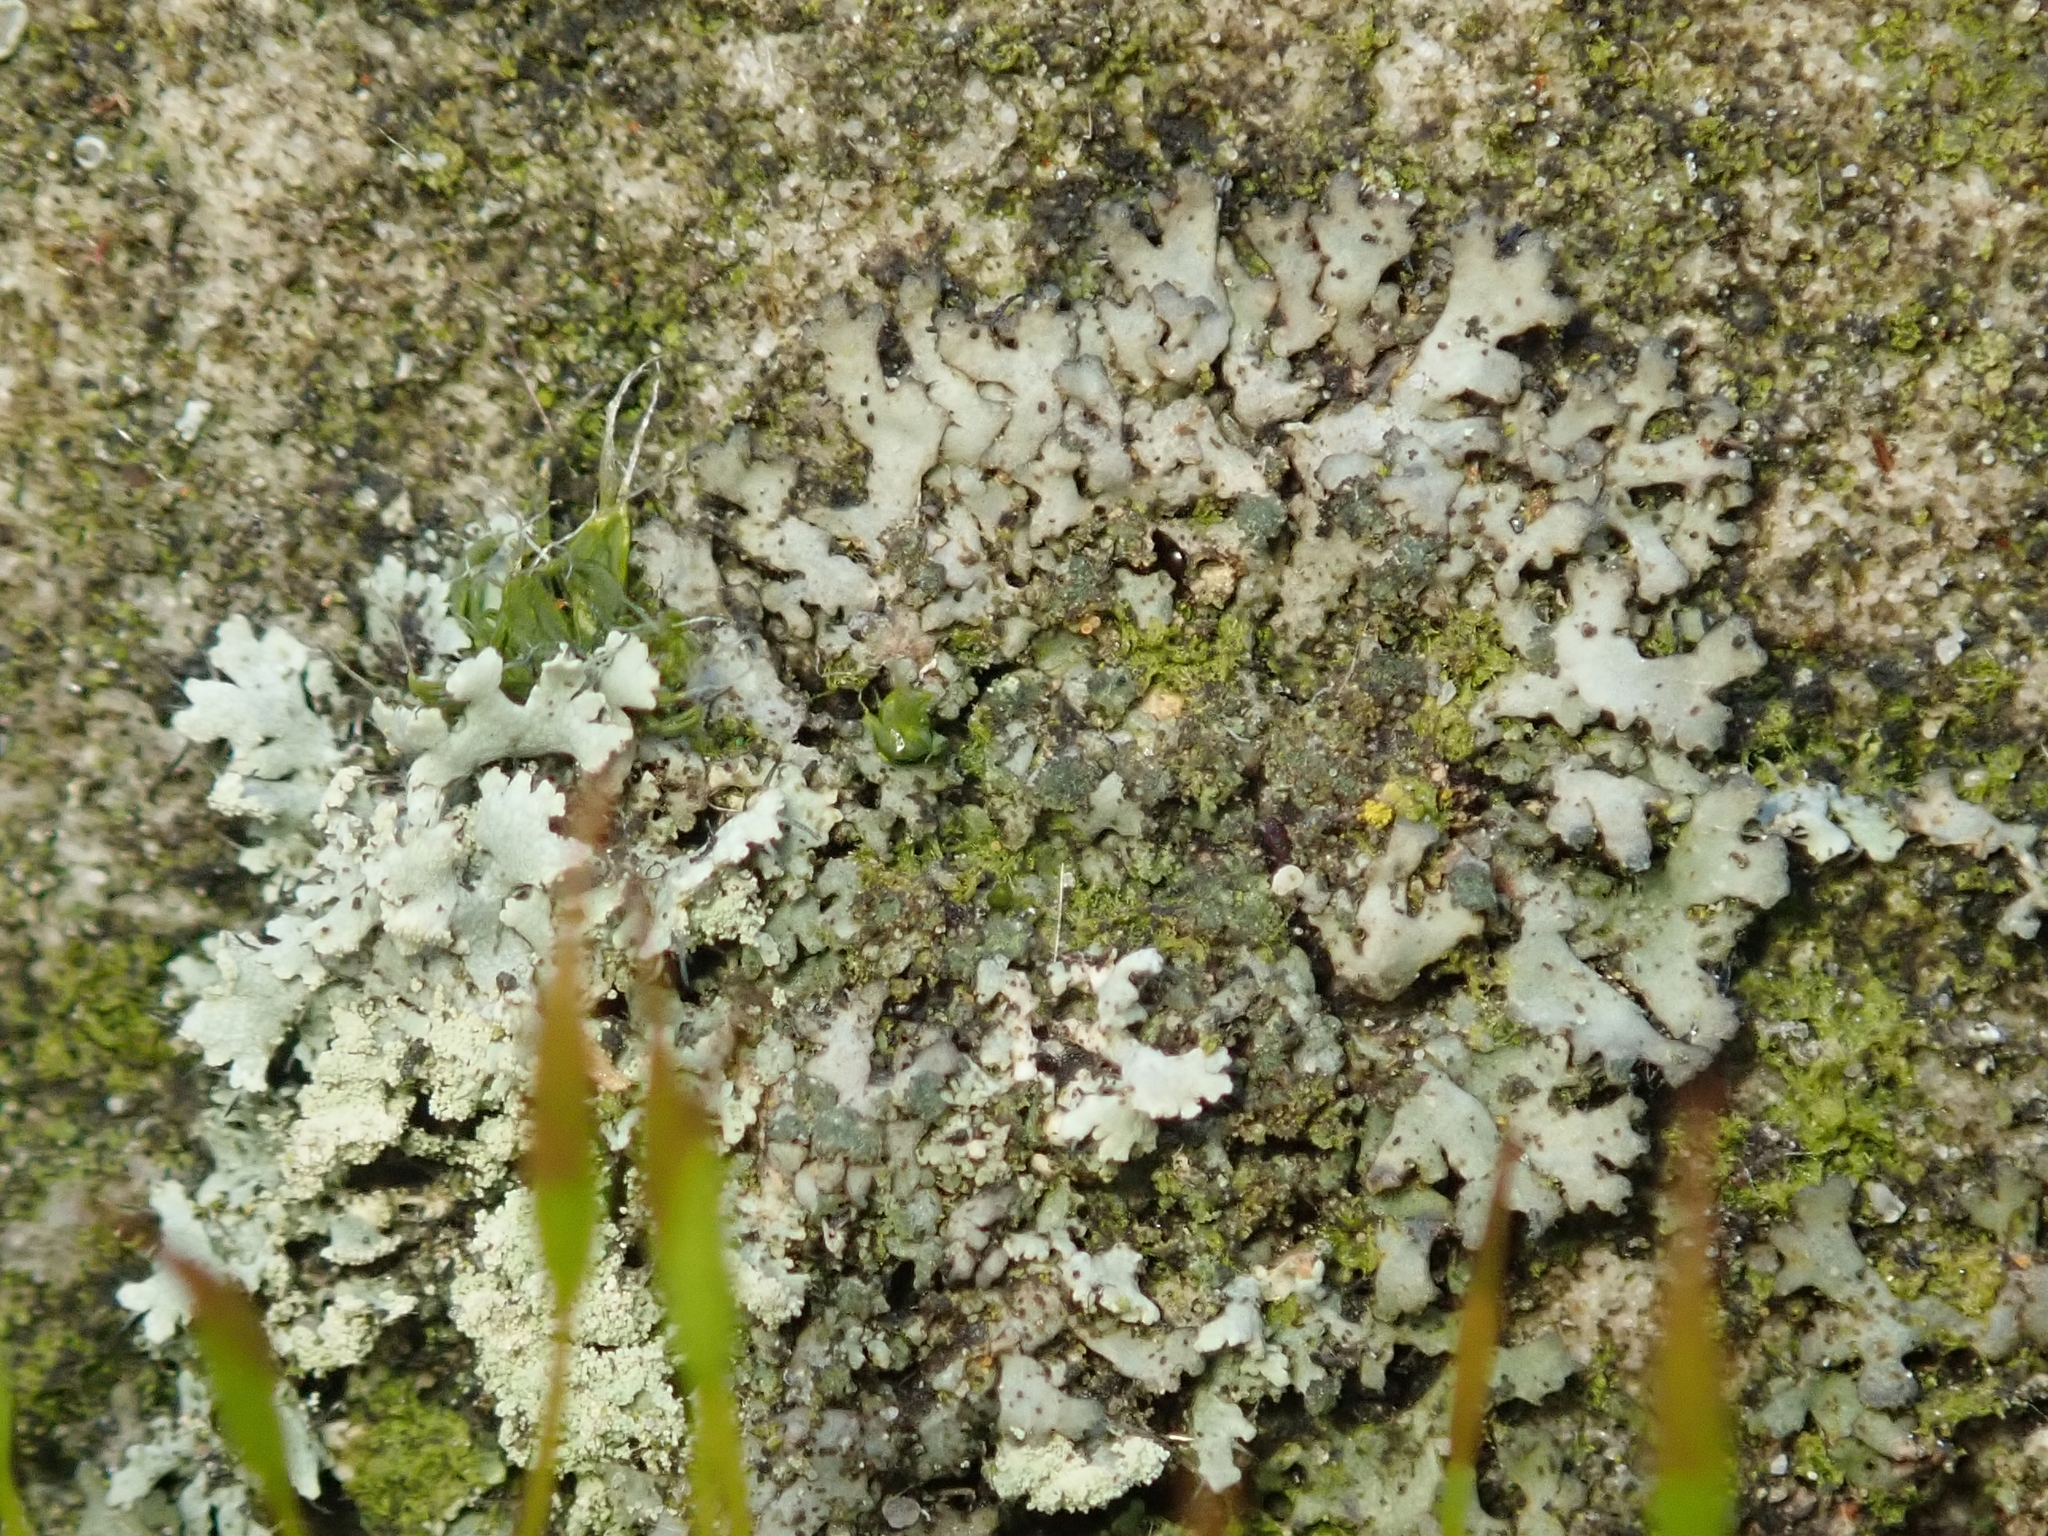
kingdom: Fungi
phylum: Ascomycota
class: Lecanoromycetes
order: Caliciales
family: Physciaceae
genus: Phaeophyscia
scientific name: Phaeophyscia orbicularis
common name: Mealy shadow lichen
